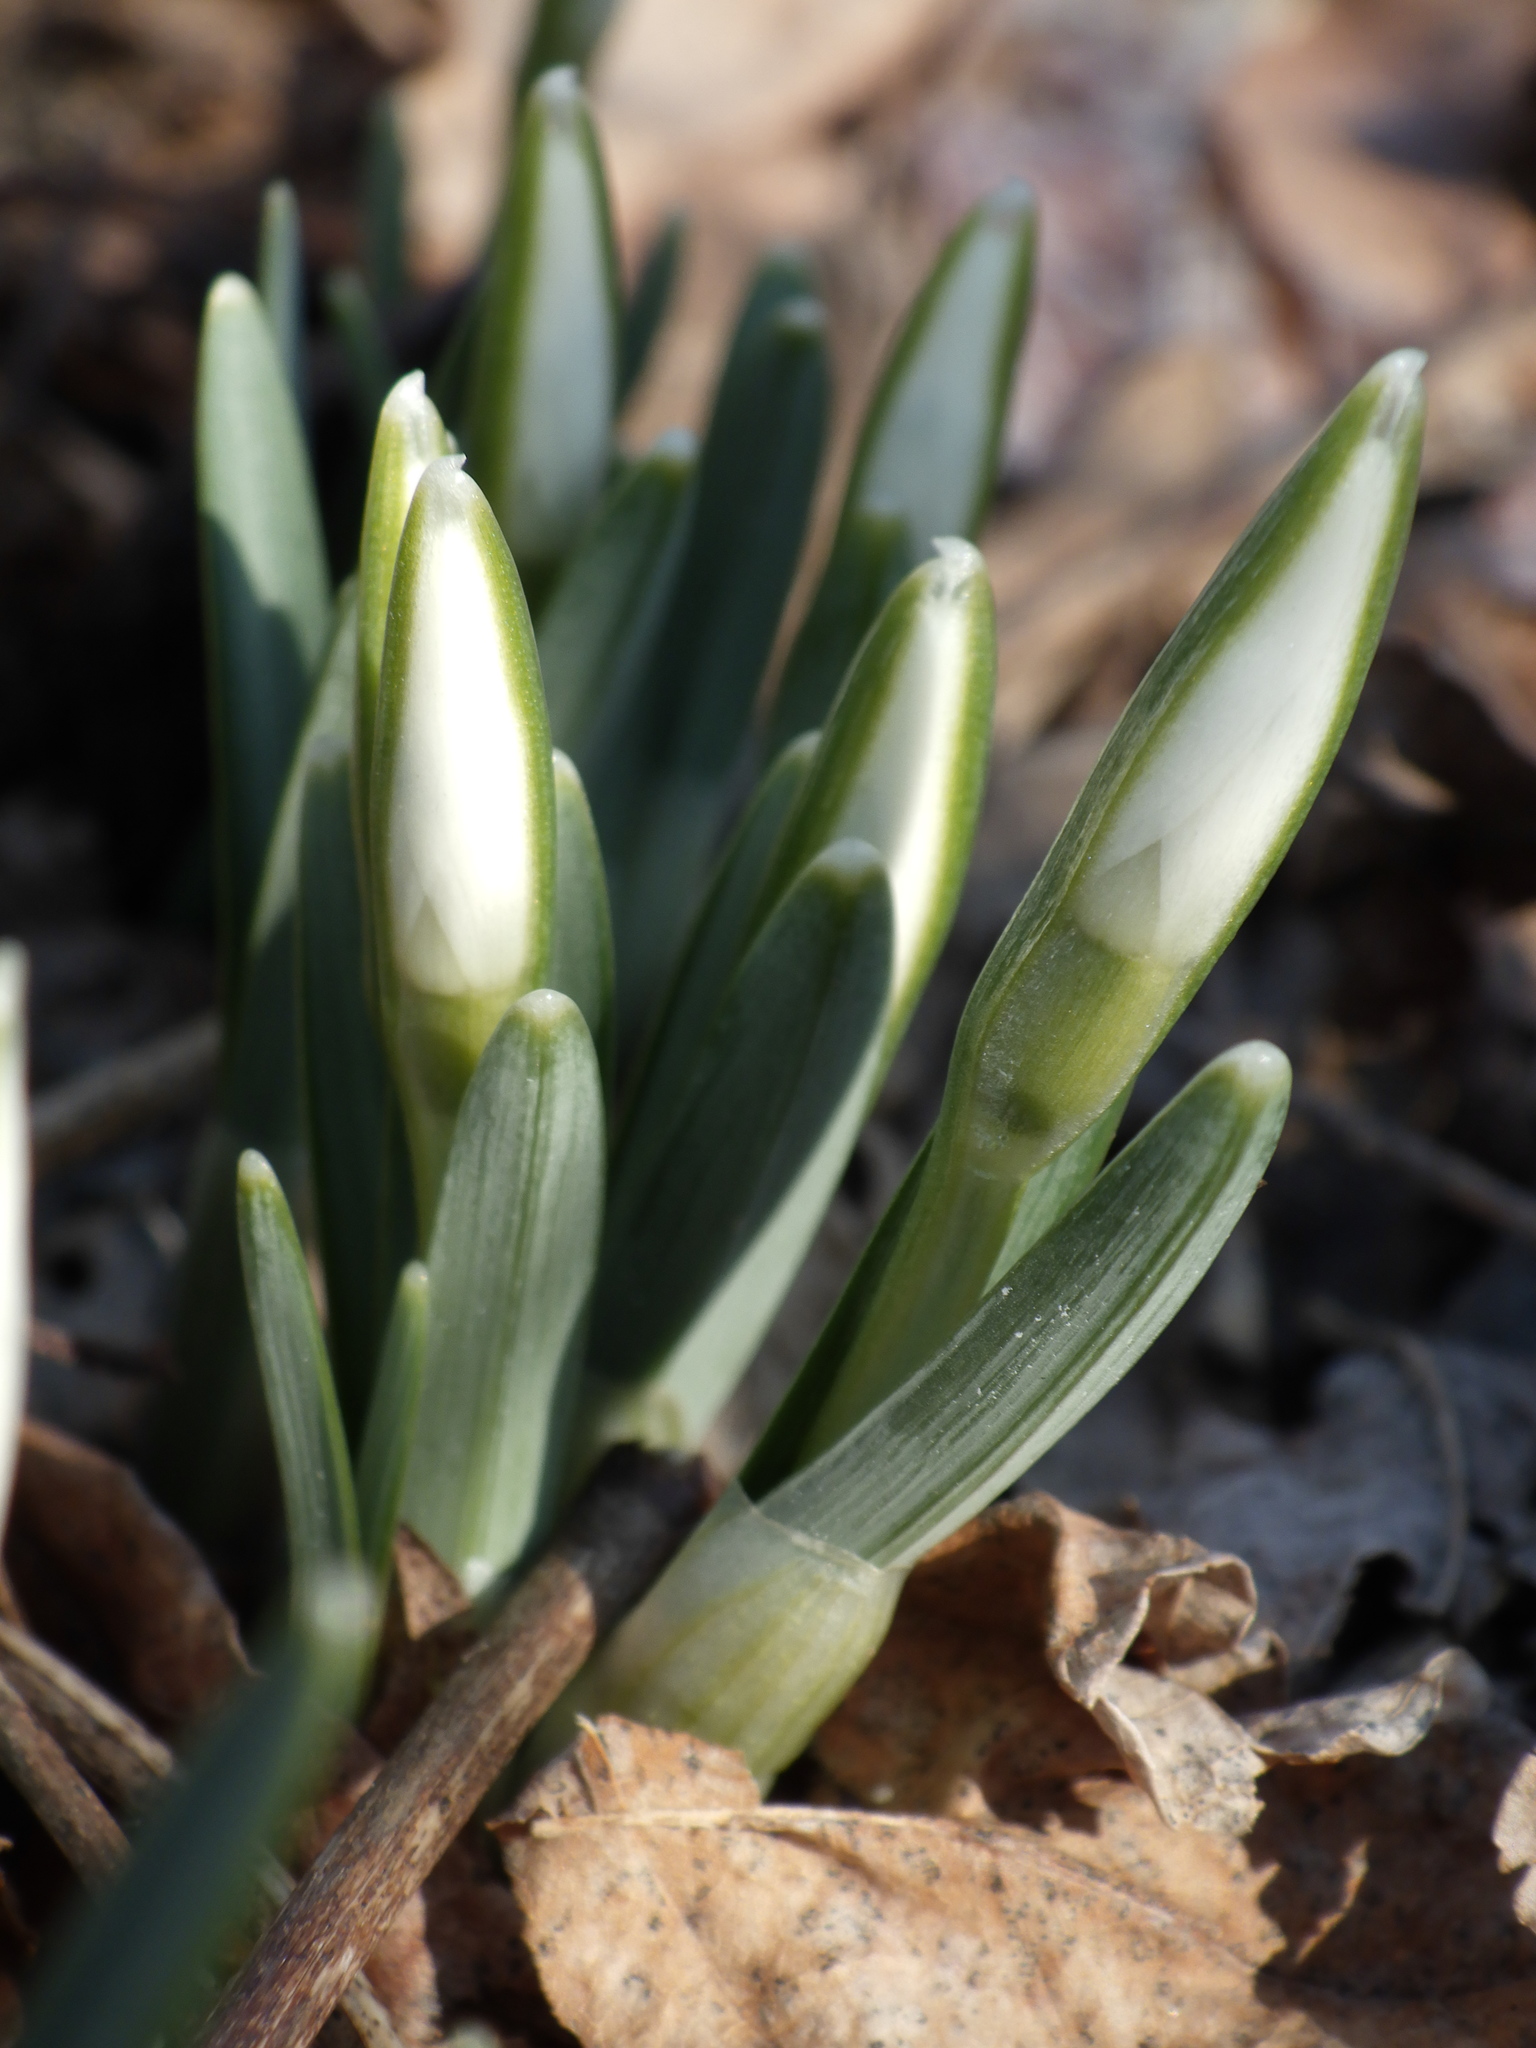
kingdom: Plantae
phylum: Tracheophyta
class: Liliopsida
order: Asparagales
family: Amaryllidaceae
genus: Galanthus
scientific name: Galanthus nivalis
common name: Snowdrop
